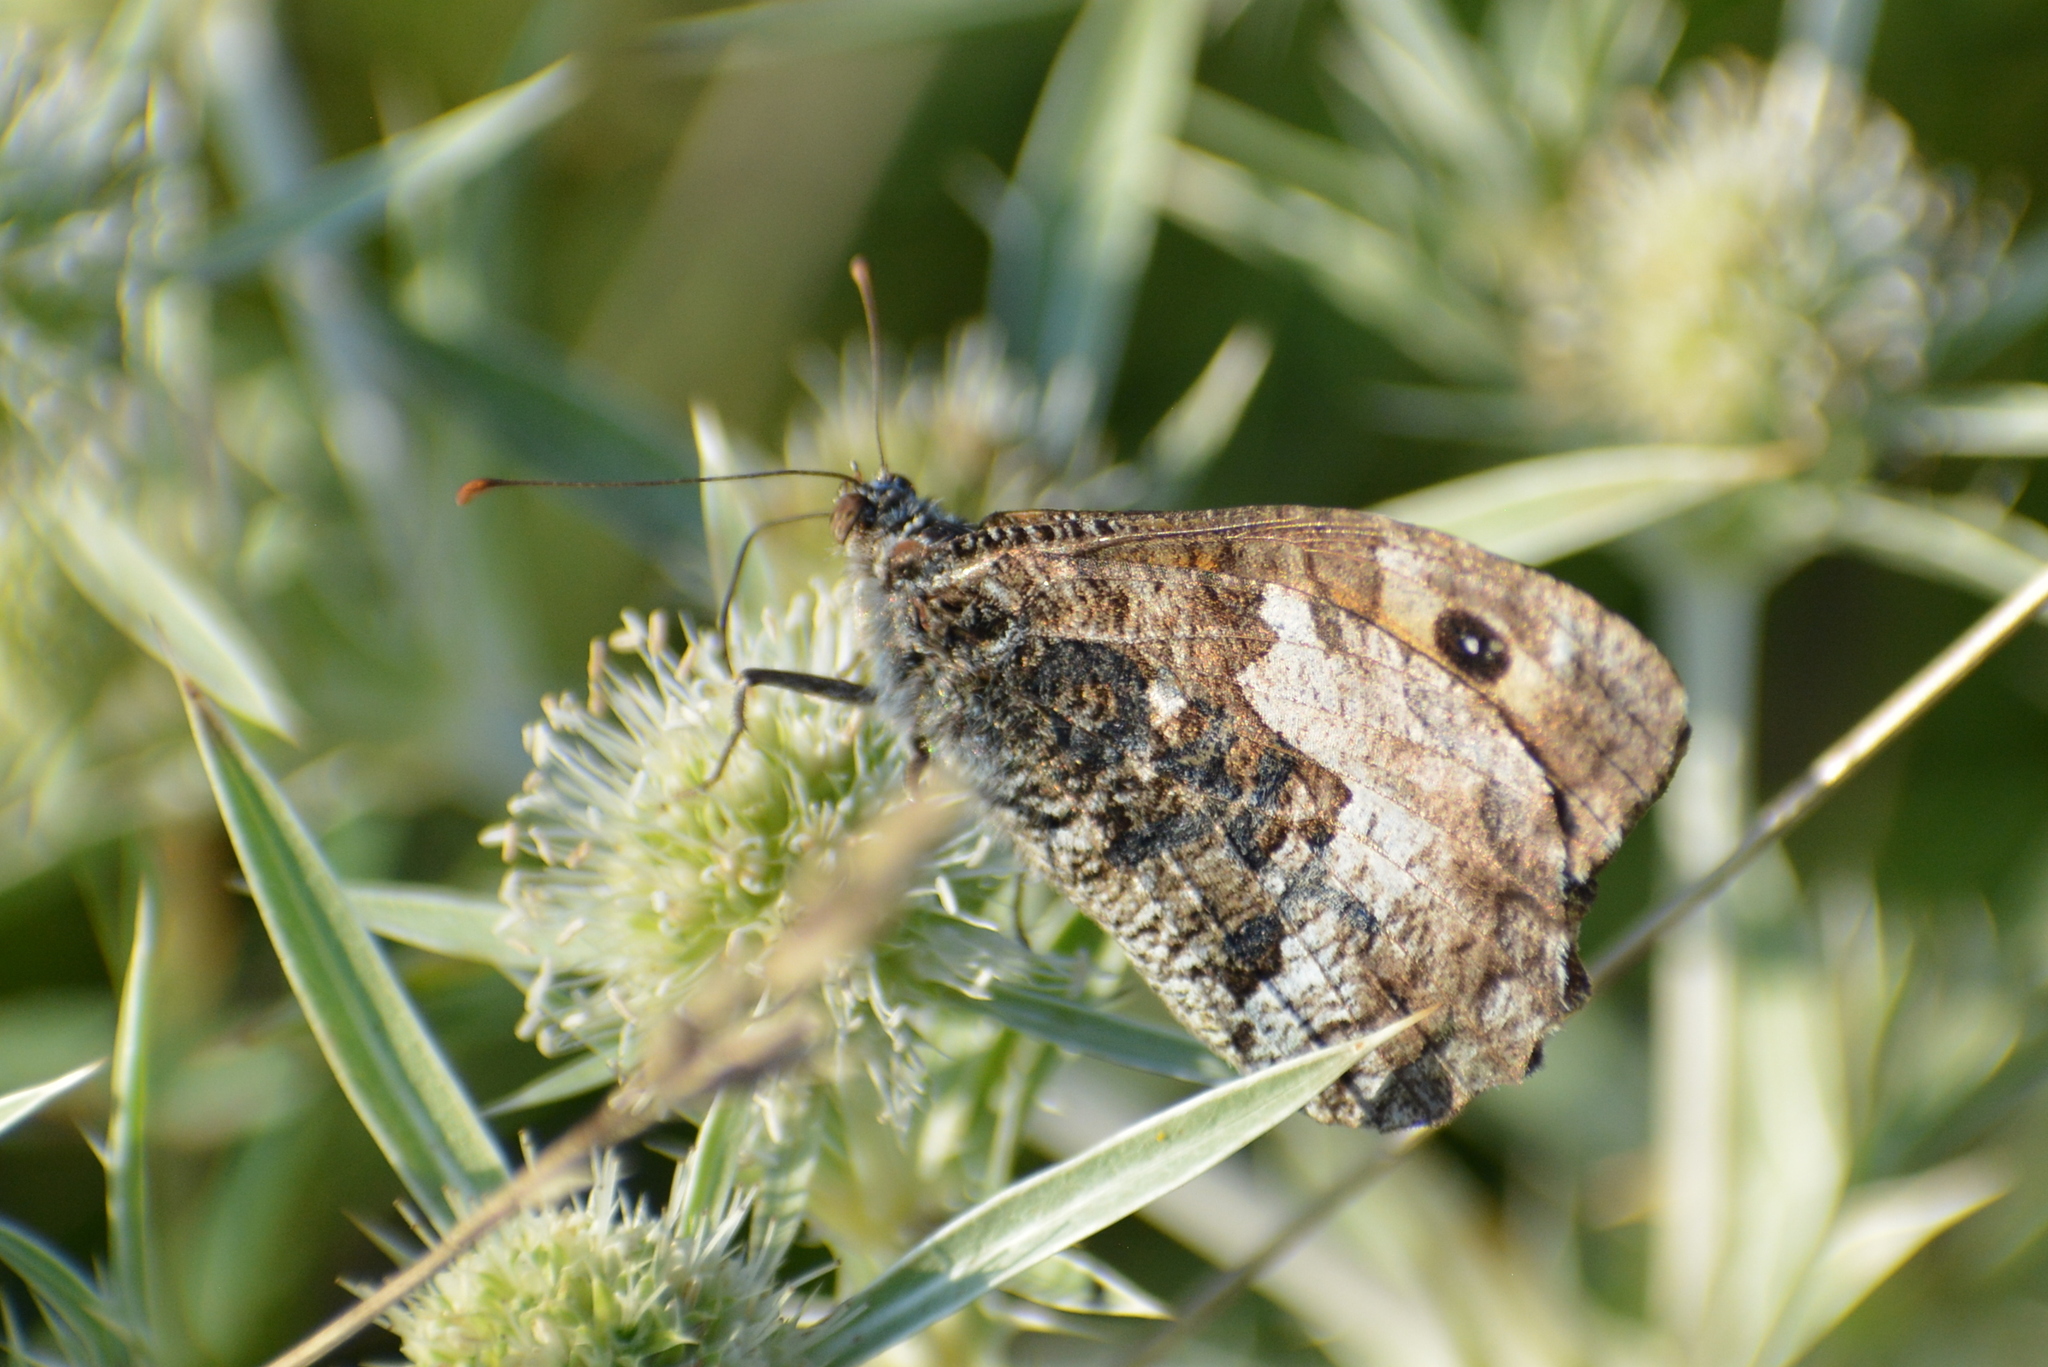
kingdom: Animalia
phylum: Arthropoda
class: Insecta
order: Lepidoptera
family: Nymphalidae
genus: Hipparchia
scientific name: Hipparchia semele
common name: Grayling
